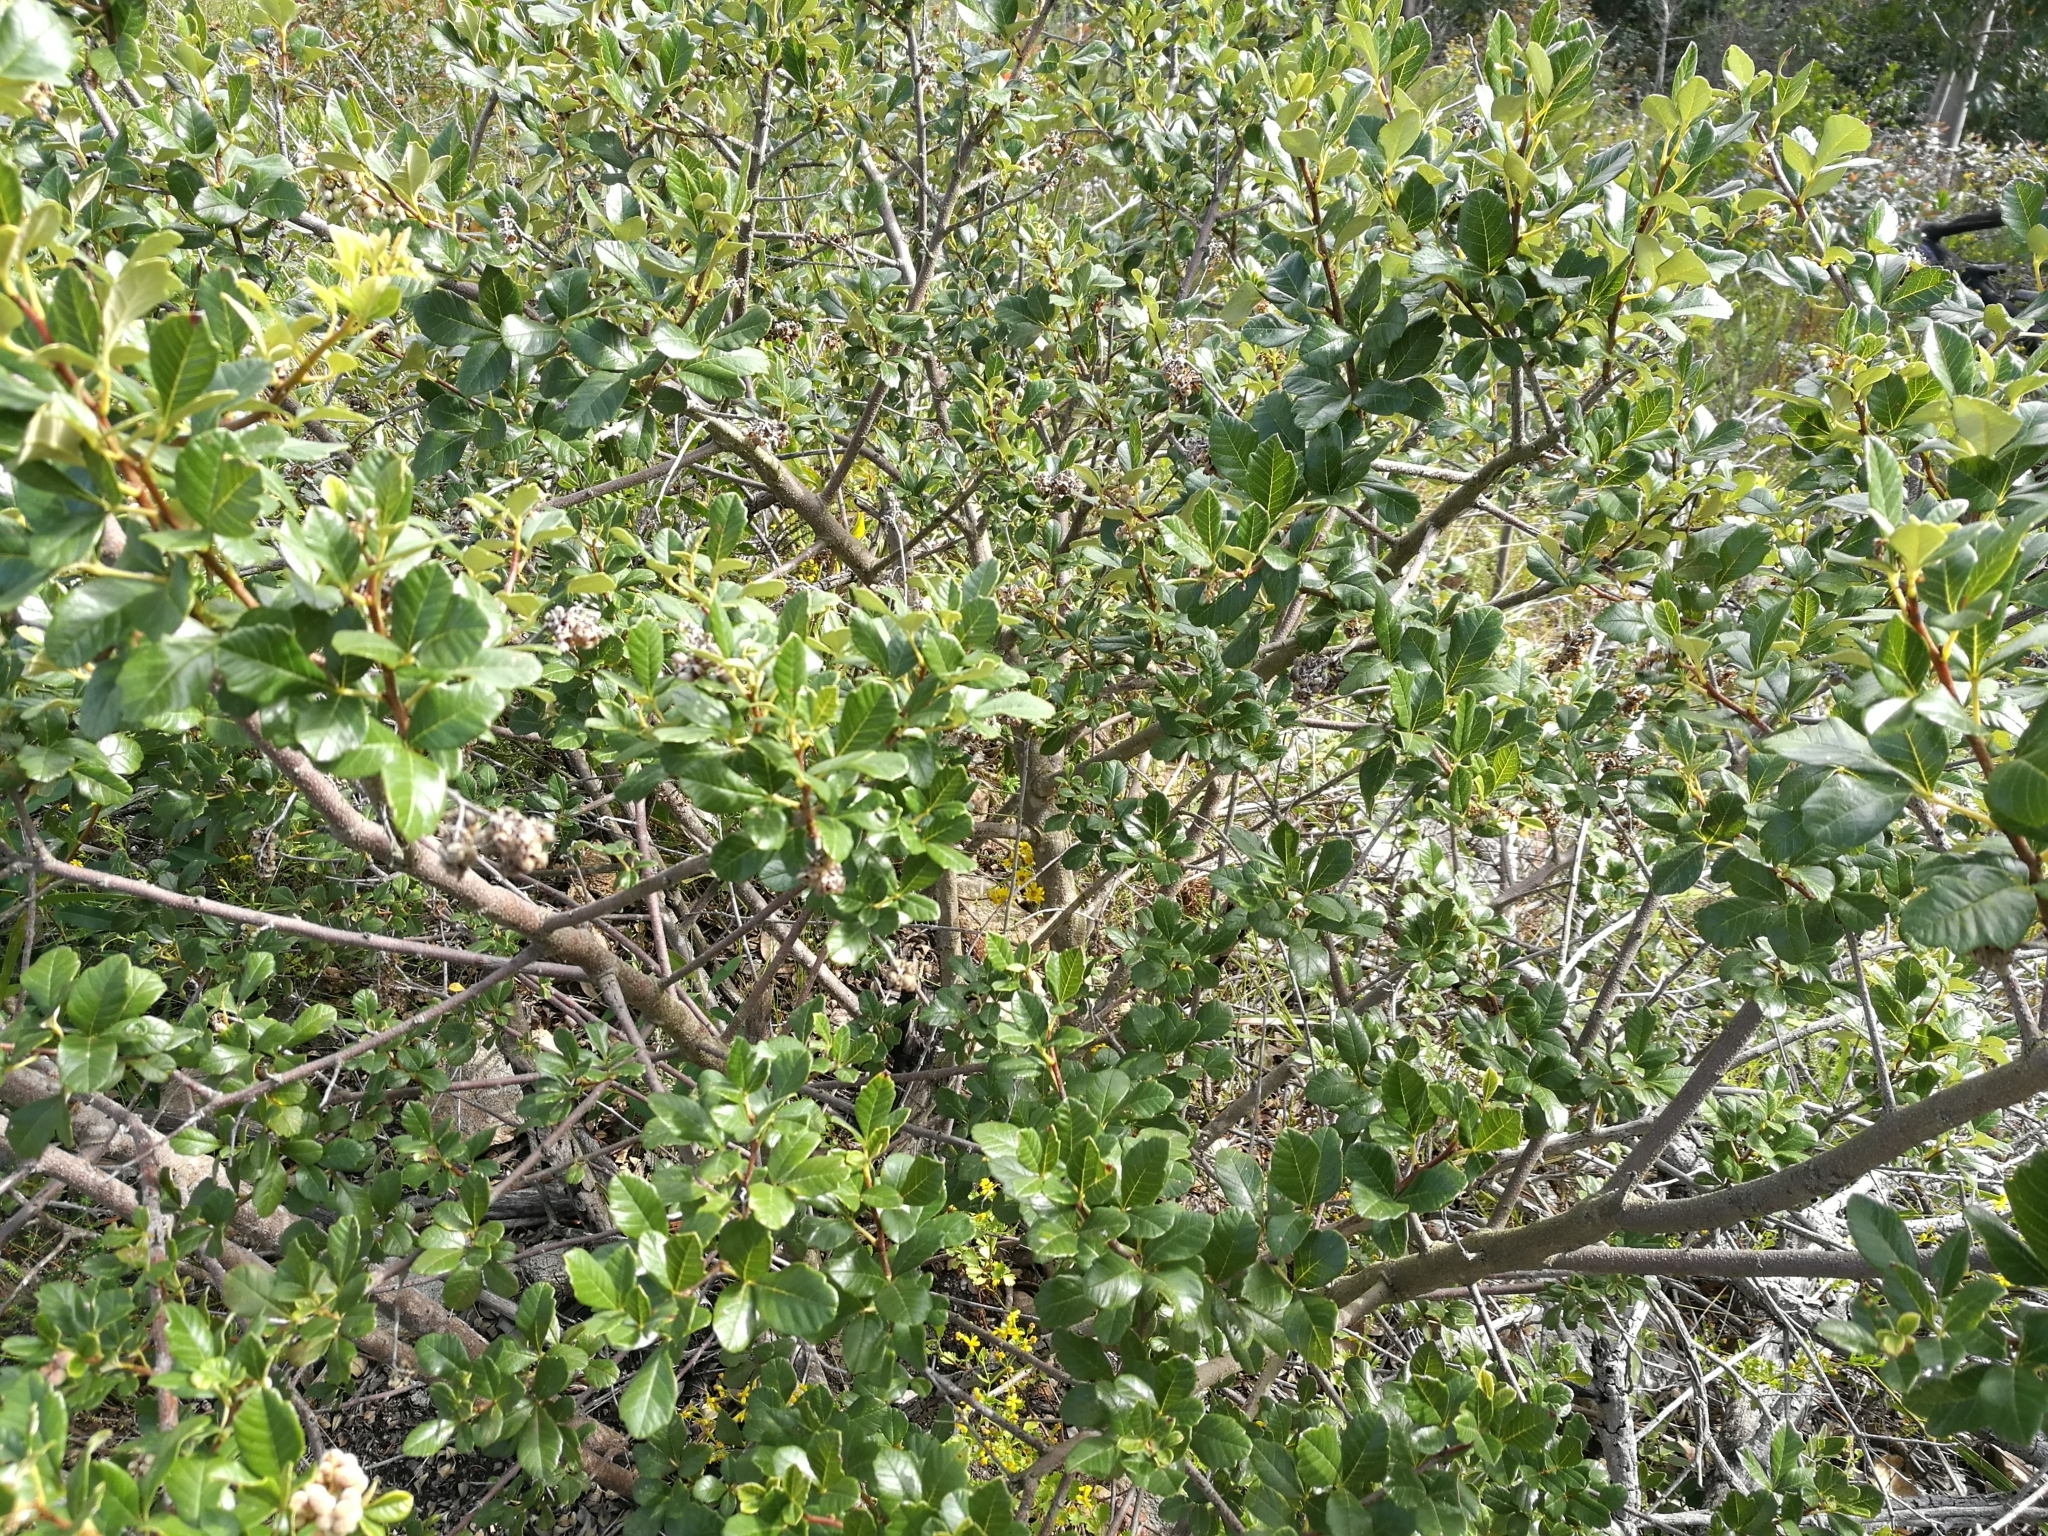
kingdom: Plantae
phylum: Tracheophyta
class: Magnoliopsida
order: Sapindales
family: Anacardiaceae
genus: Searsia
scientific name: Searsia incisa
